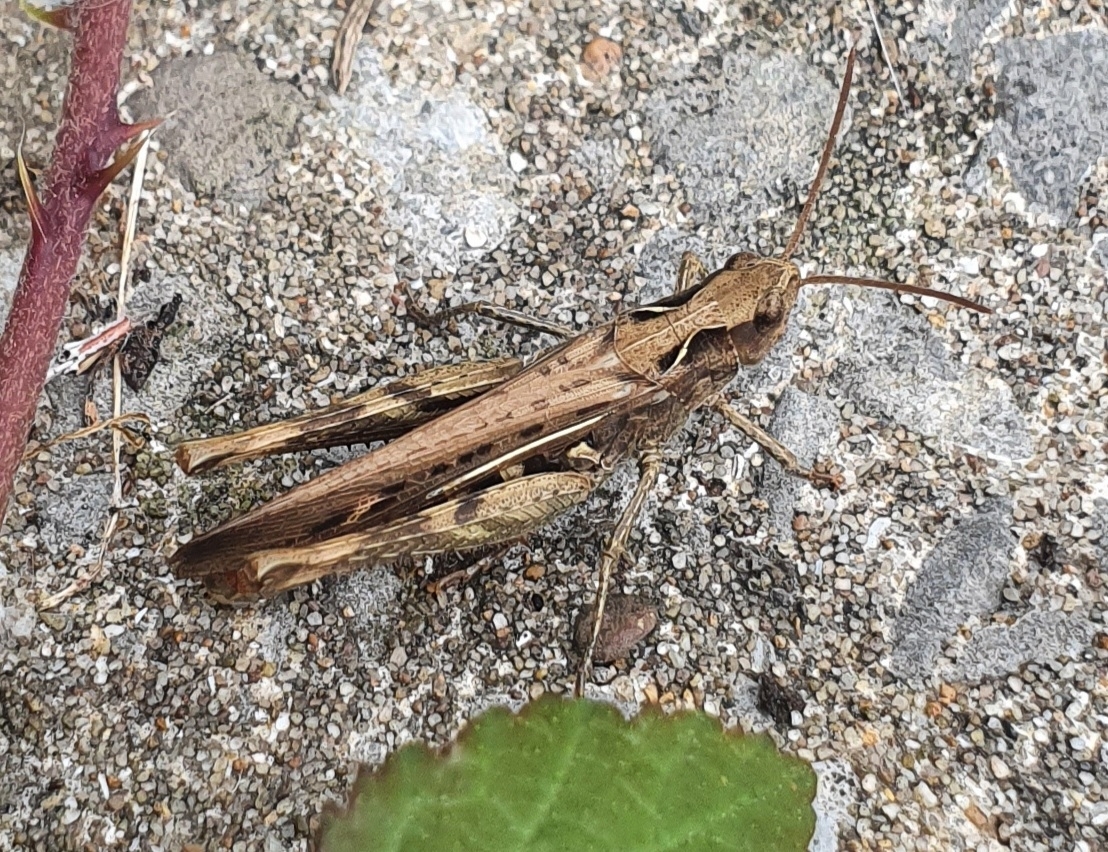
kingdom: Animalia
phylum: Arthropoda
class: Insecta
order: Orthoptera
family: Acrididae
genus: Chorthippus
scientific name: Chorthippus brunneus
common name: Field grasshopper
